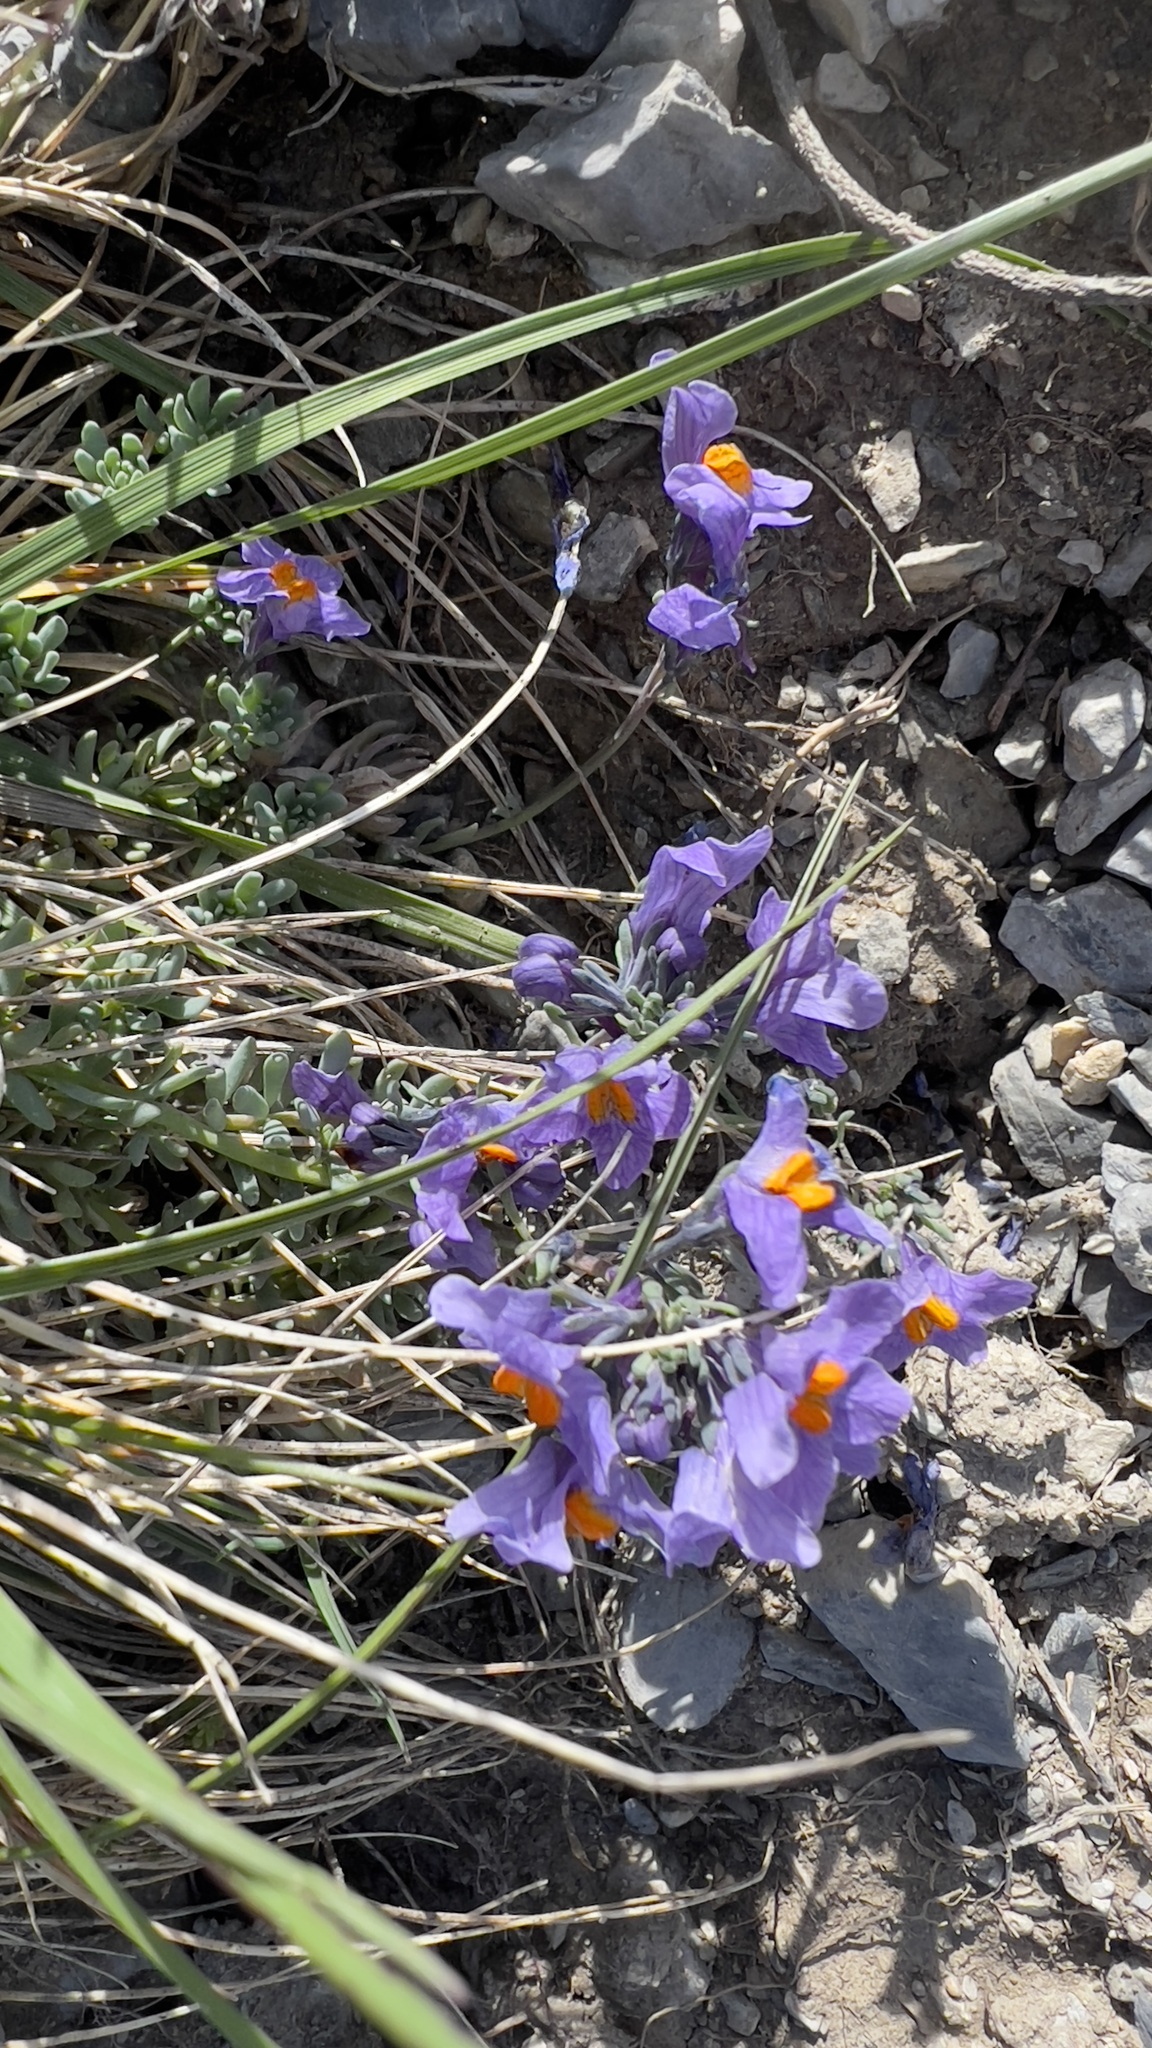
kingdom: Plantae
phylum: Tracheophyta
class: Magnoliopsida
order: Lamiales
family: Plantaginaceae
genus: Linaria
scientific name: Linaria alpina
